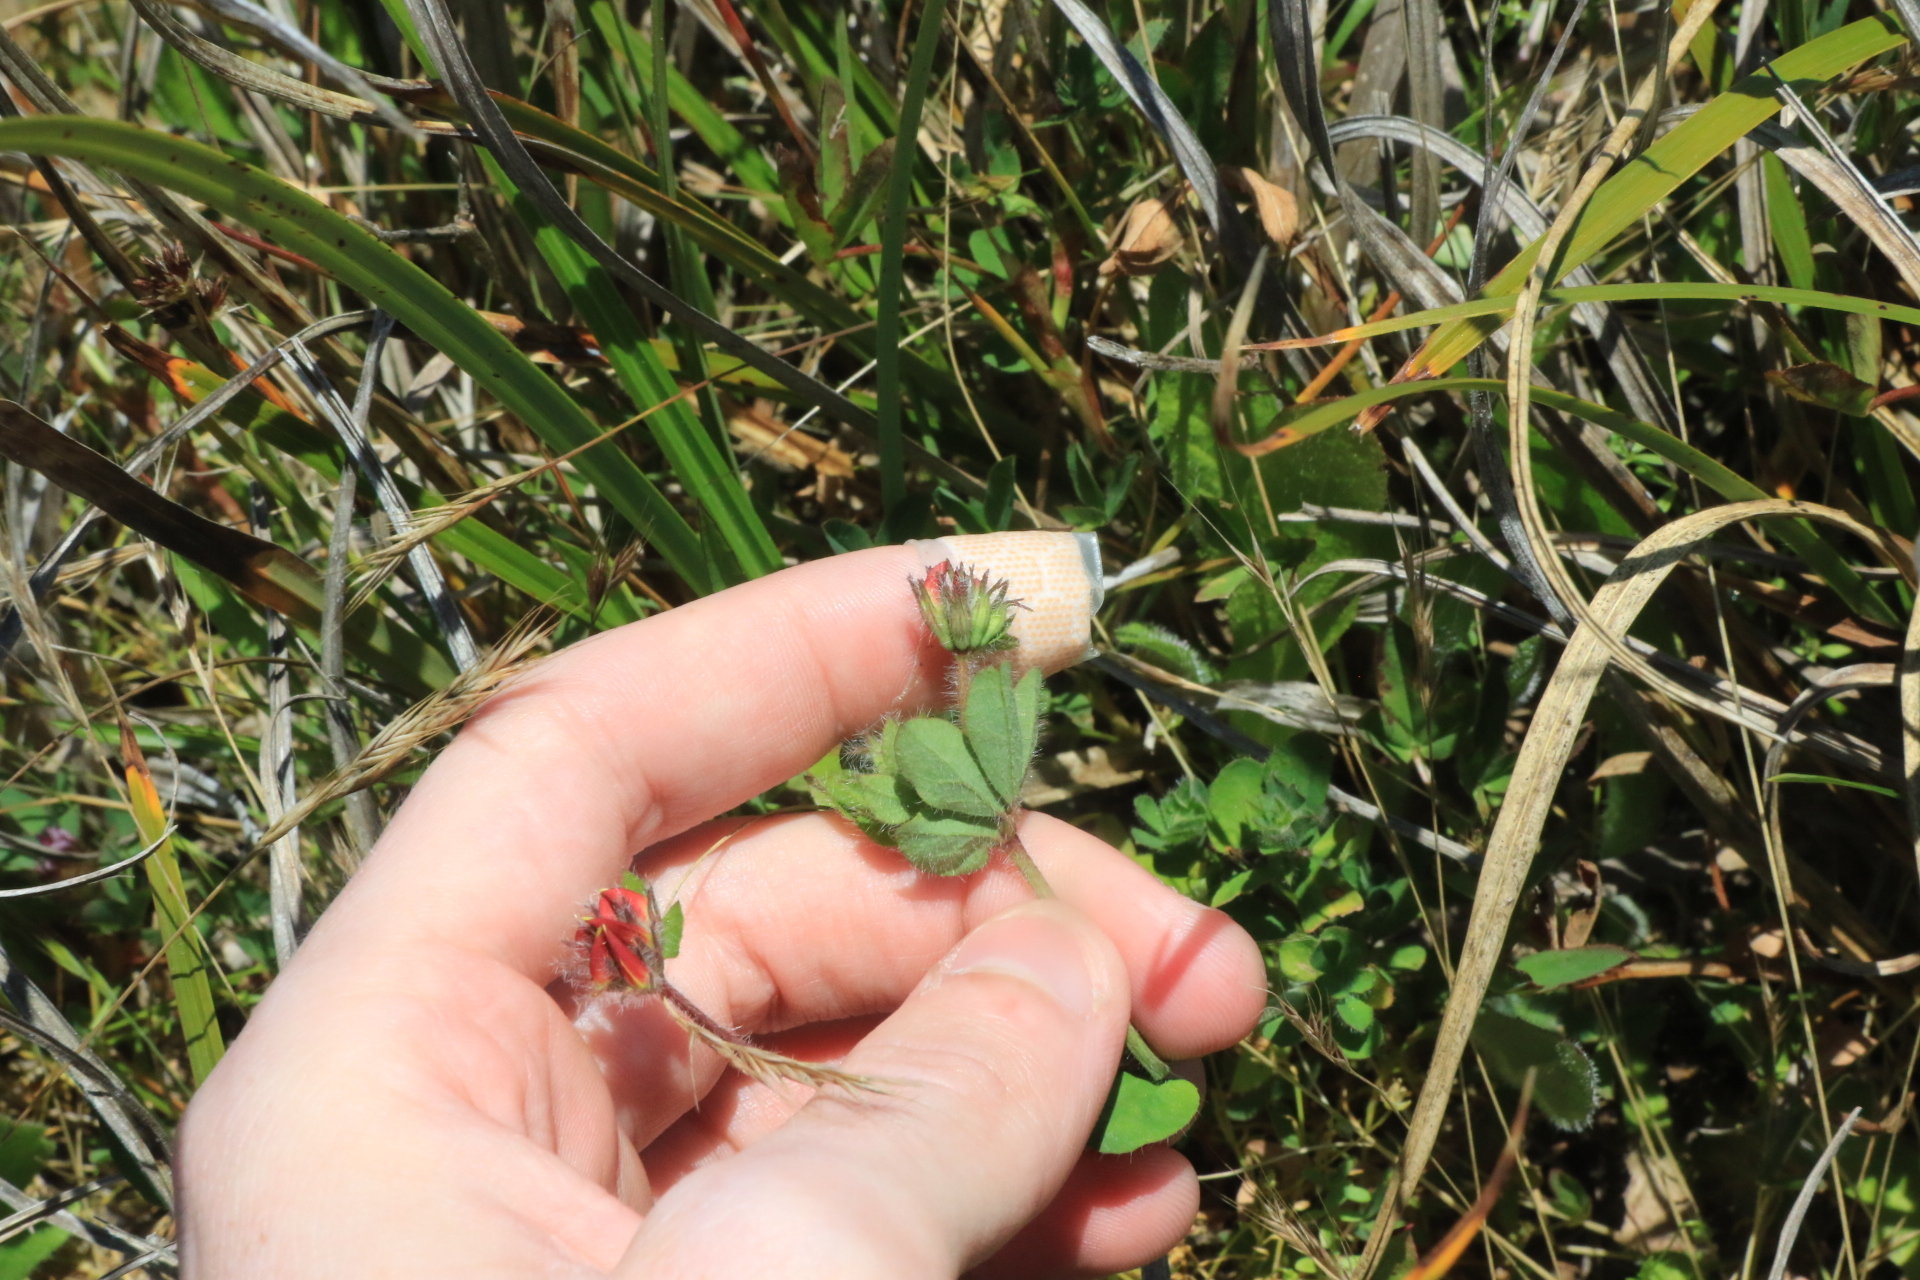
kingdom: Plantae
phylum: Tracheophyta
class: Magnoliopsida
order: Fabales
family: Fabaceae
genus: Lotus
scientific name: Lotus corniculatus
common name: Common bird's-foot-trefoil
